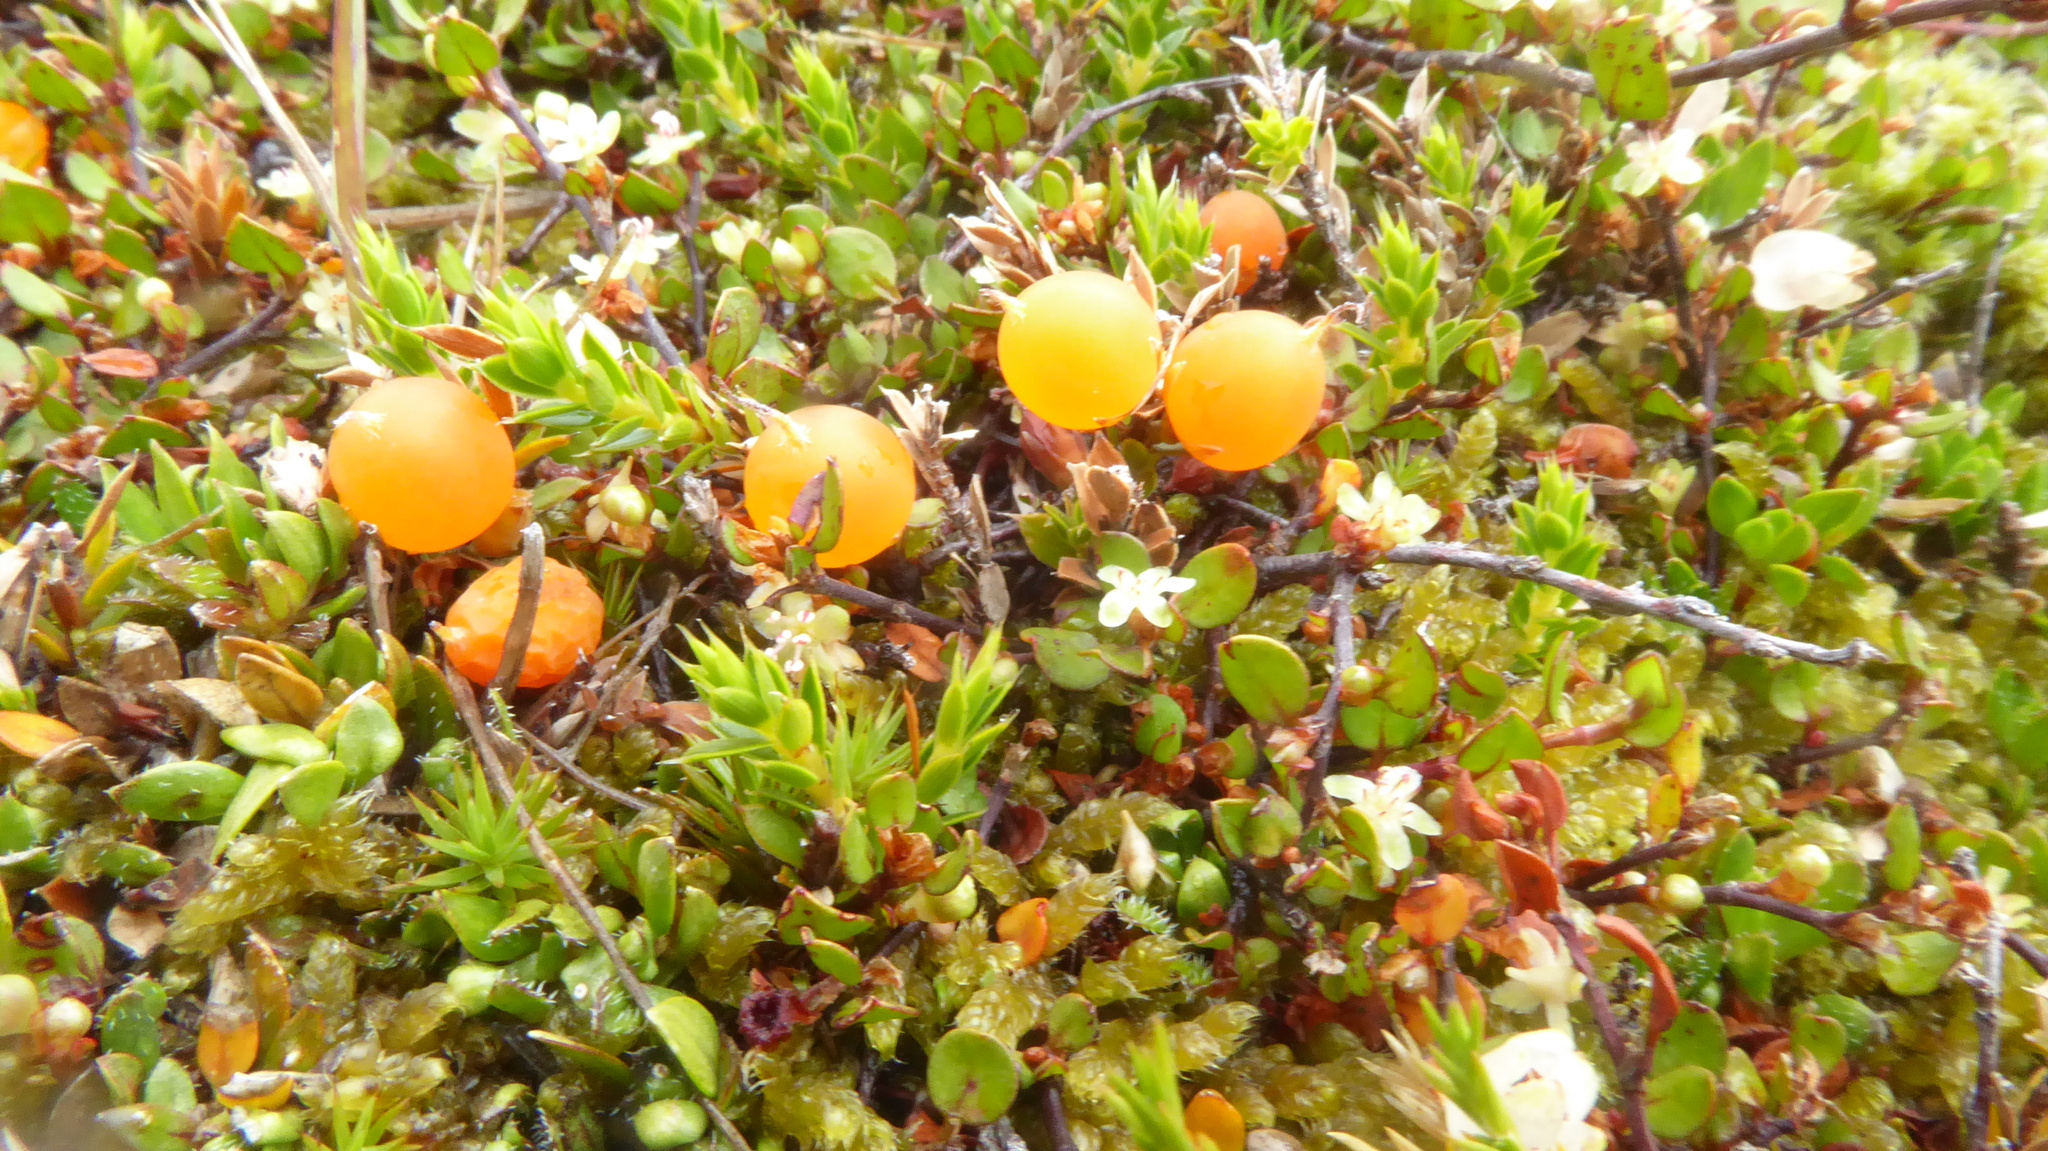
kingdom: Plantae
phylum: Tracheophyta
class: Magnoliopsida
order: Ericales
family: Ericaceae
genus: Styphelia
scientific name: Styphelia nesophila
